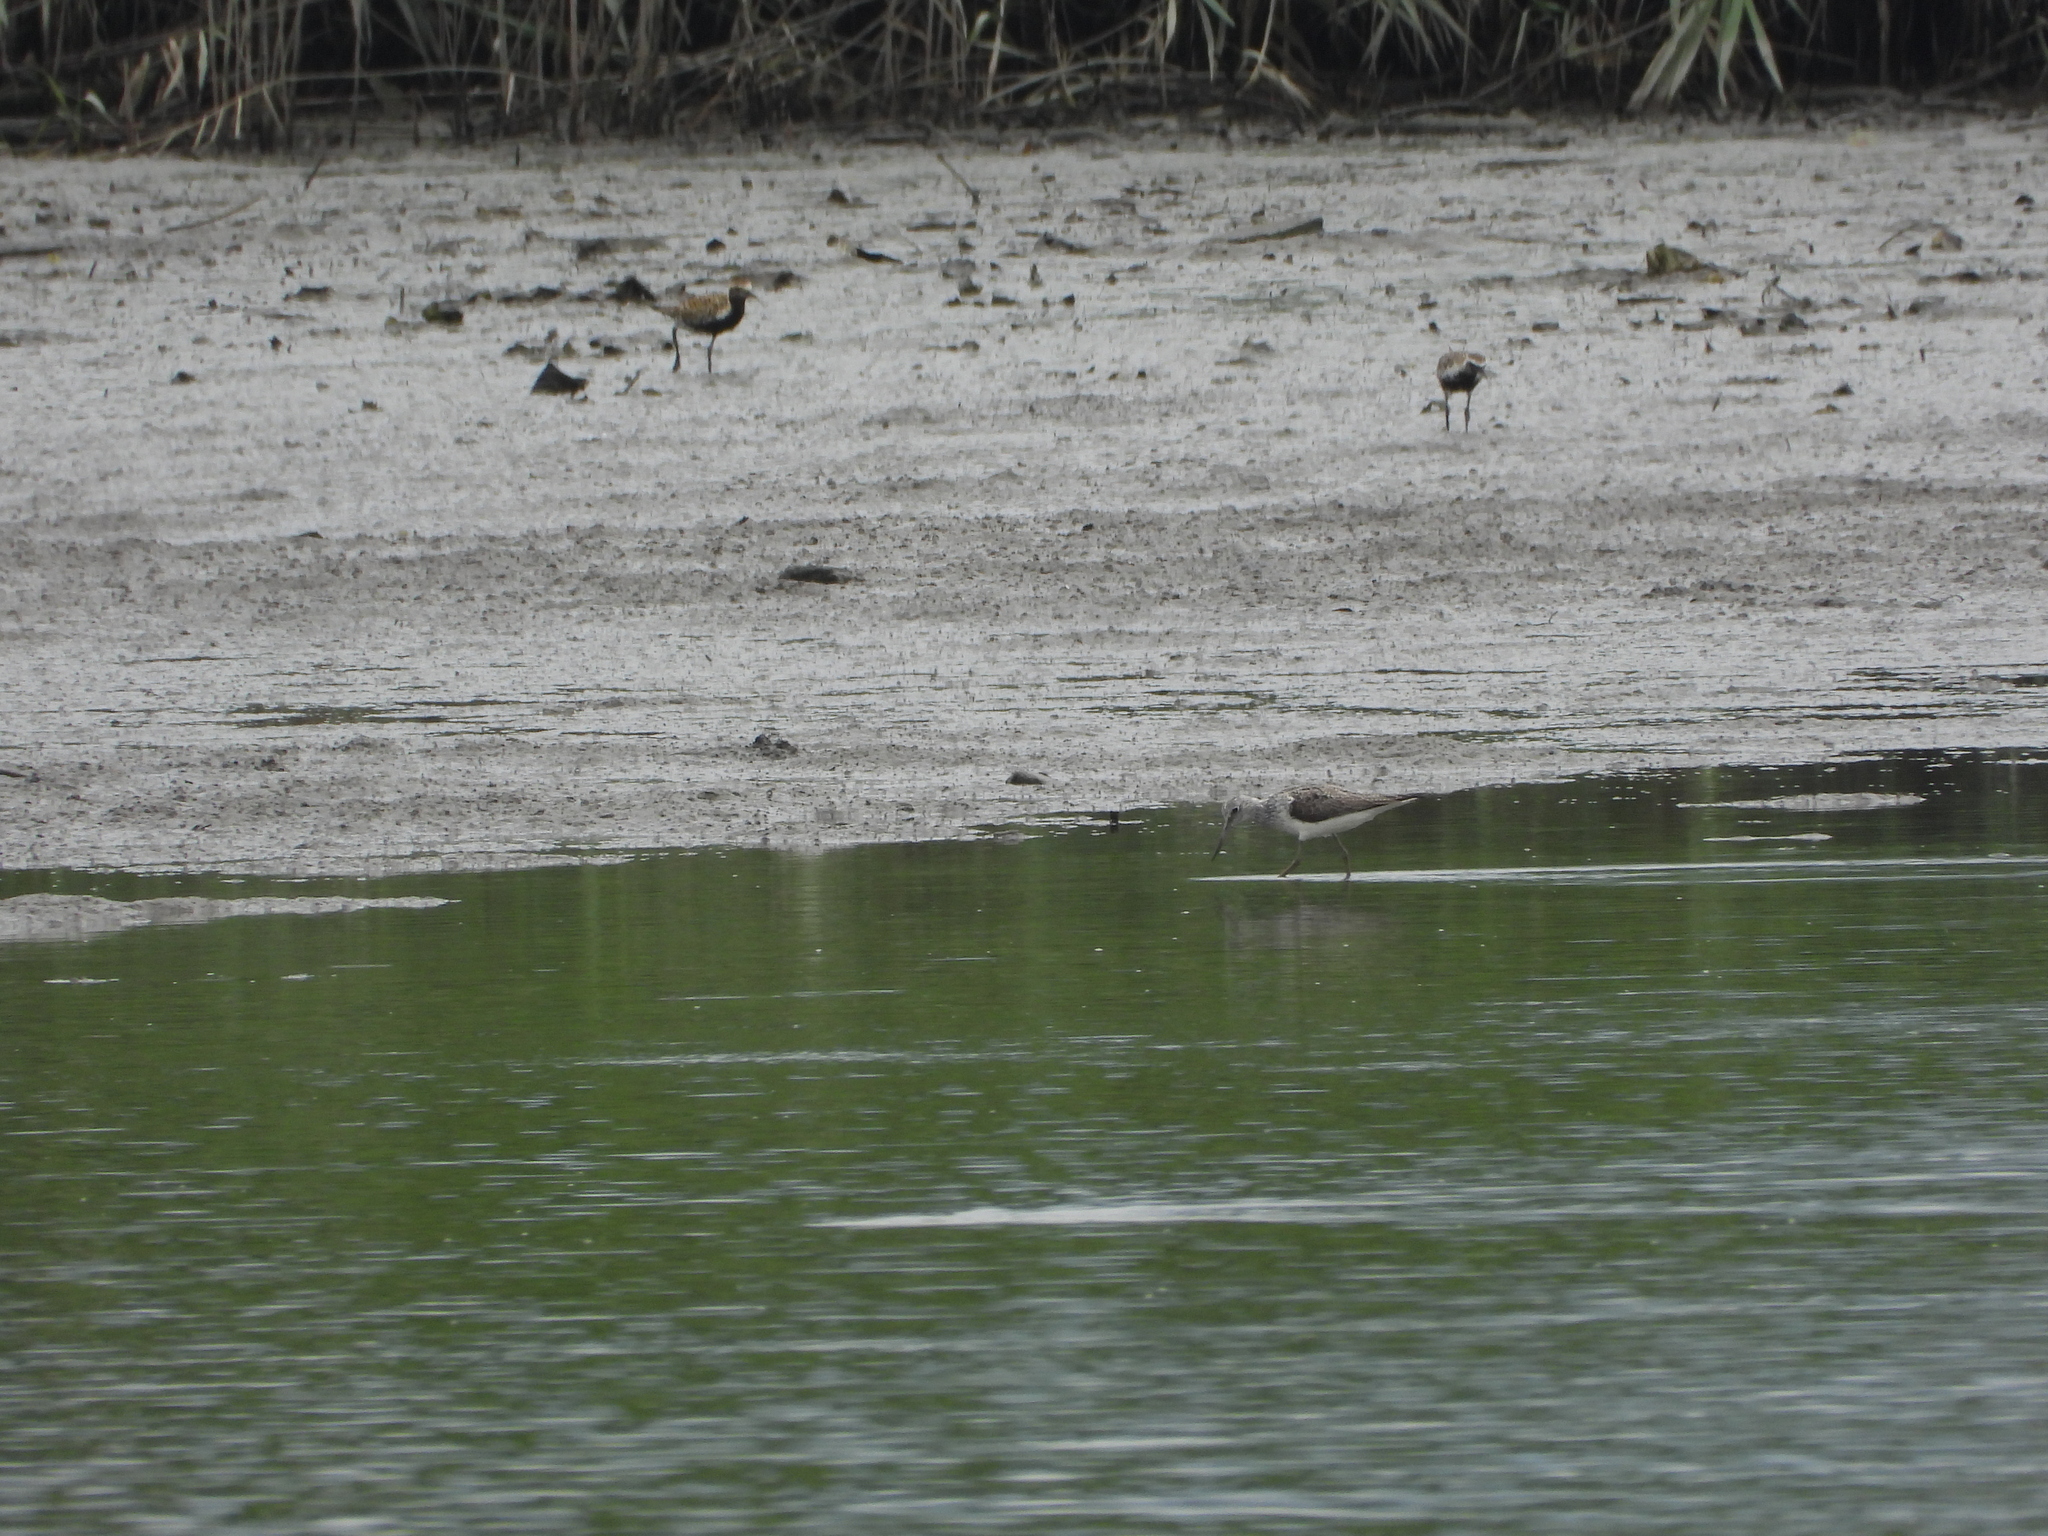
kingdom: Animalia
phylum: Chordata
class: Aves
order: Charadriiformes
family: Scolopacidae
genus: Tringa
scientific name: Tringa nebularia
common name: Common greenshank
